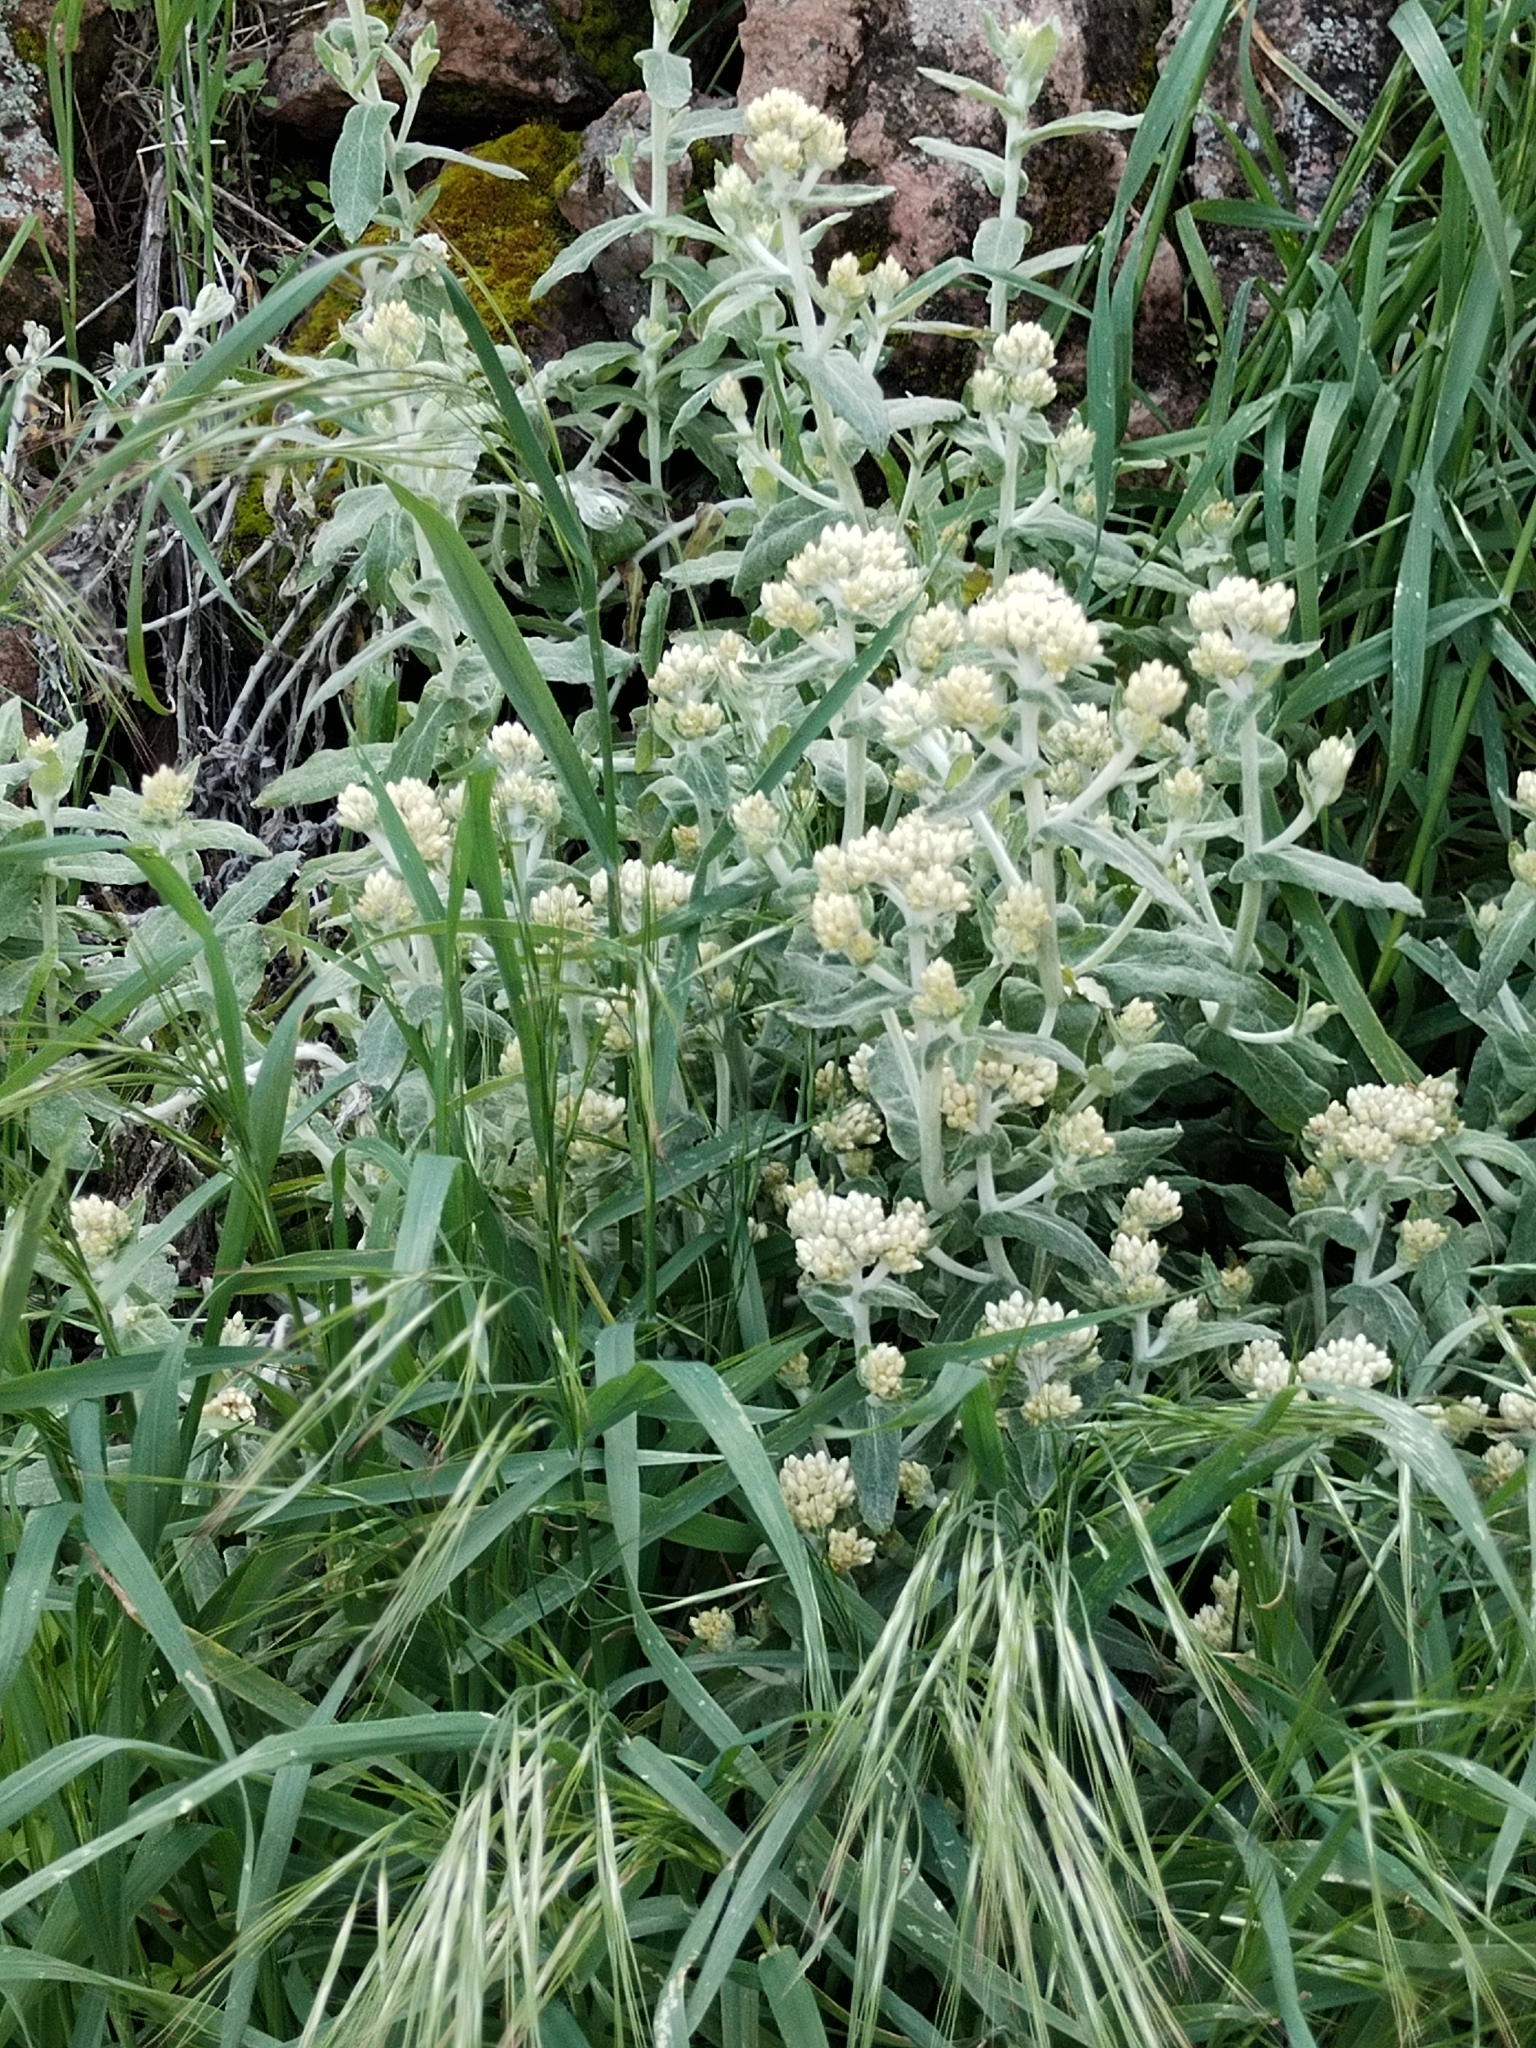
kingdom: Plantae
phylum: Tracheophyta
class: Magnoliopsida
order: Asterales
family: Asteraceae
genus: Pseudognaphalium
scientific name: Pseudognaphalium microcephalum
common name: San diego rabbit-tobacco
